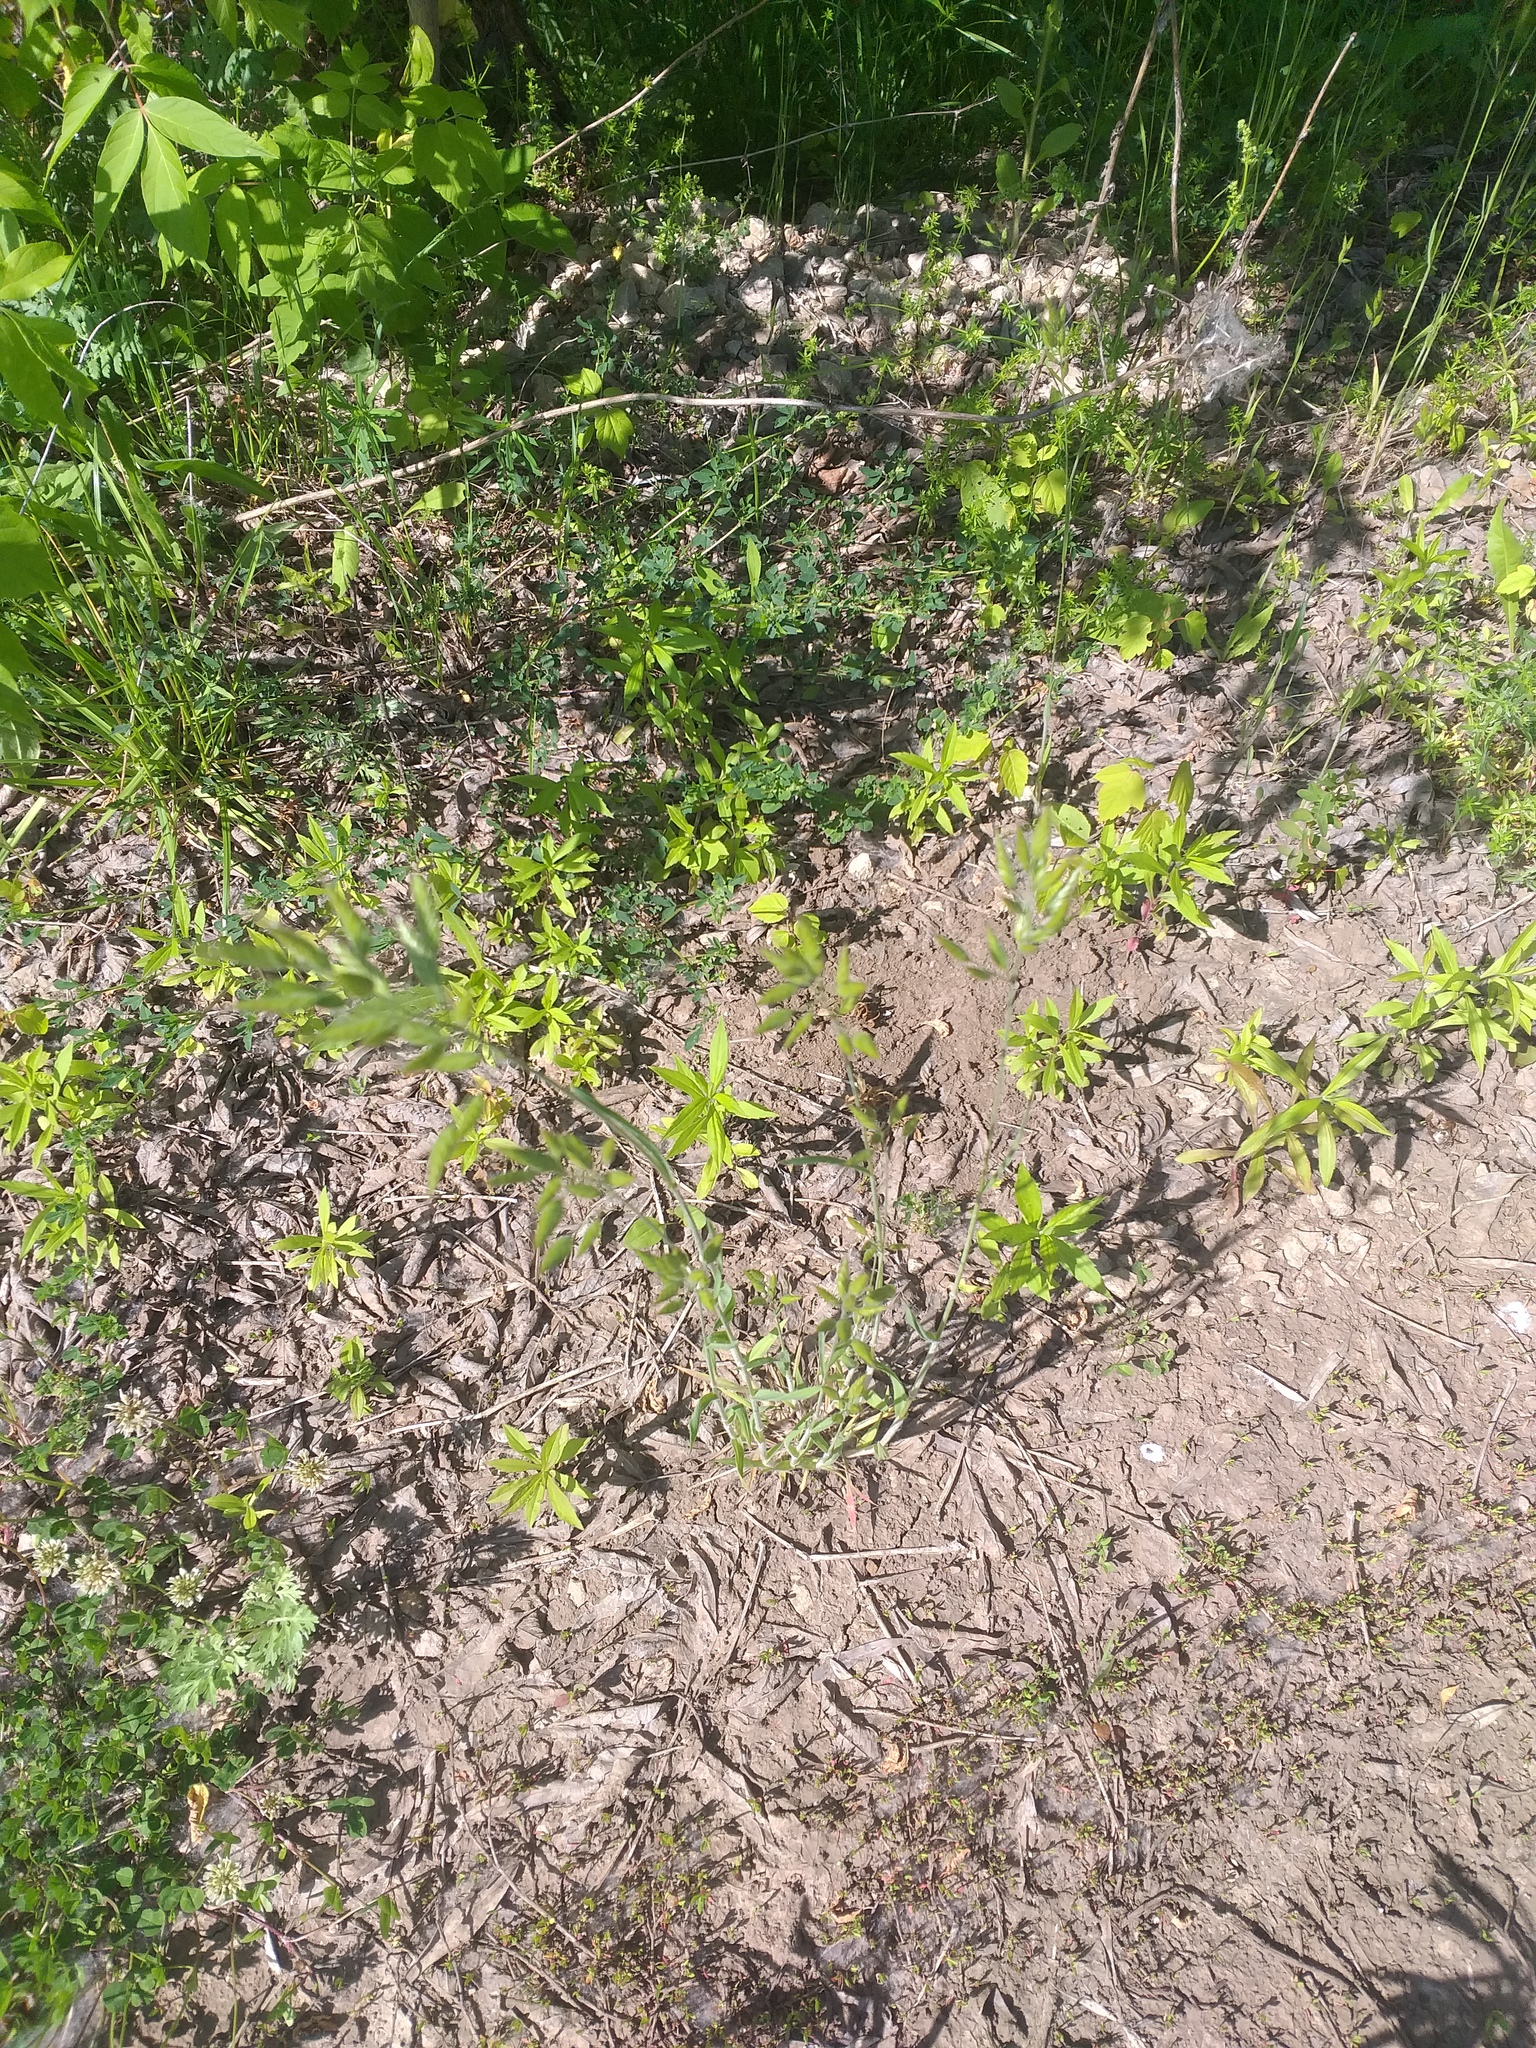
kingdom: Plantae
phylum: Tracheophyta
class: Liliopsida
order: Poales
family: Poaceae
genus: Bromus
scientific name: Bromus hordeaceus
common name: Soft brome
